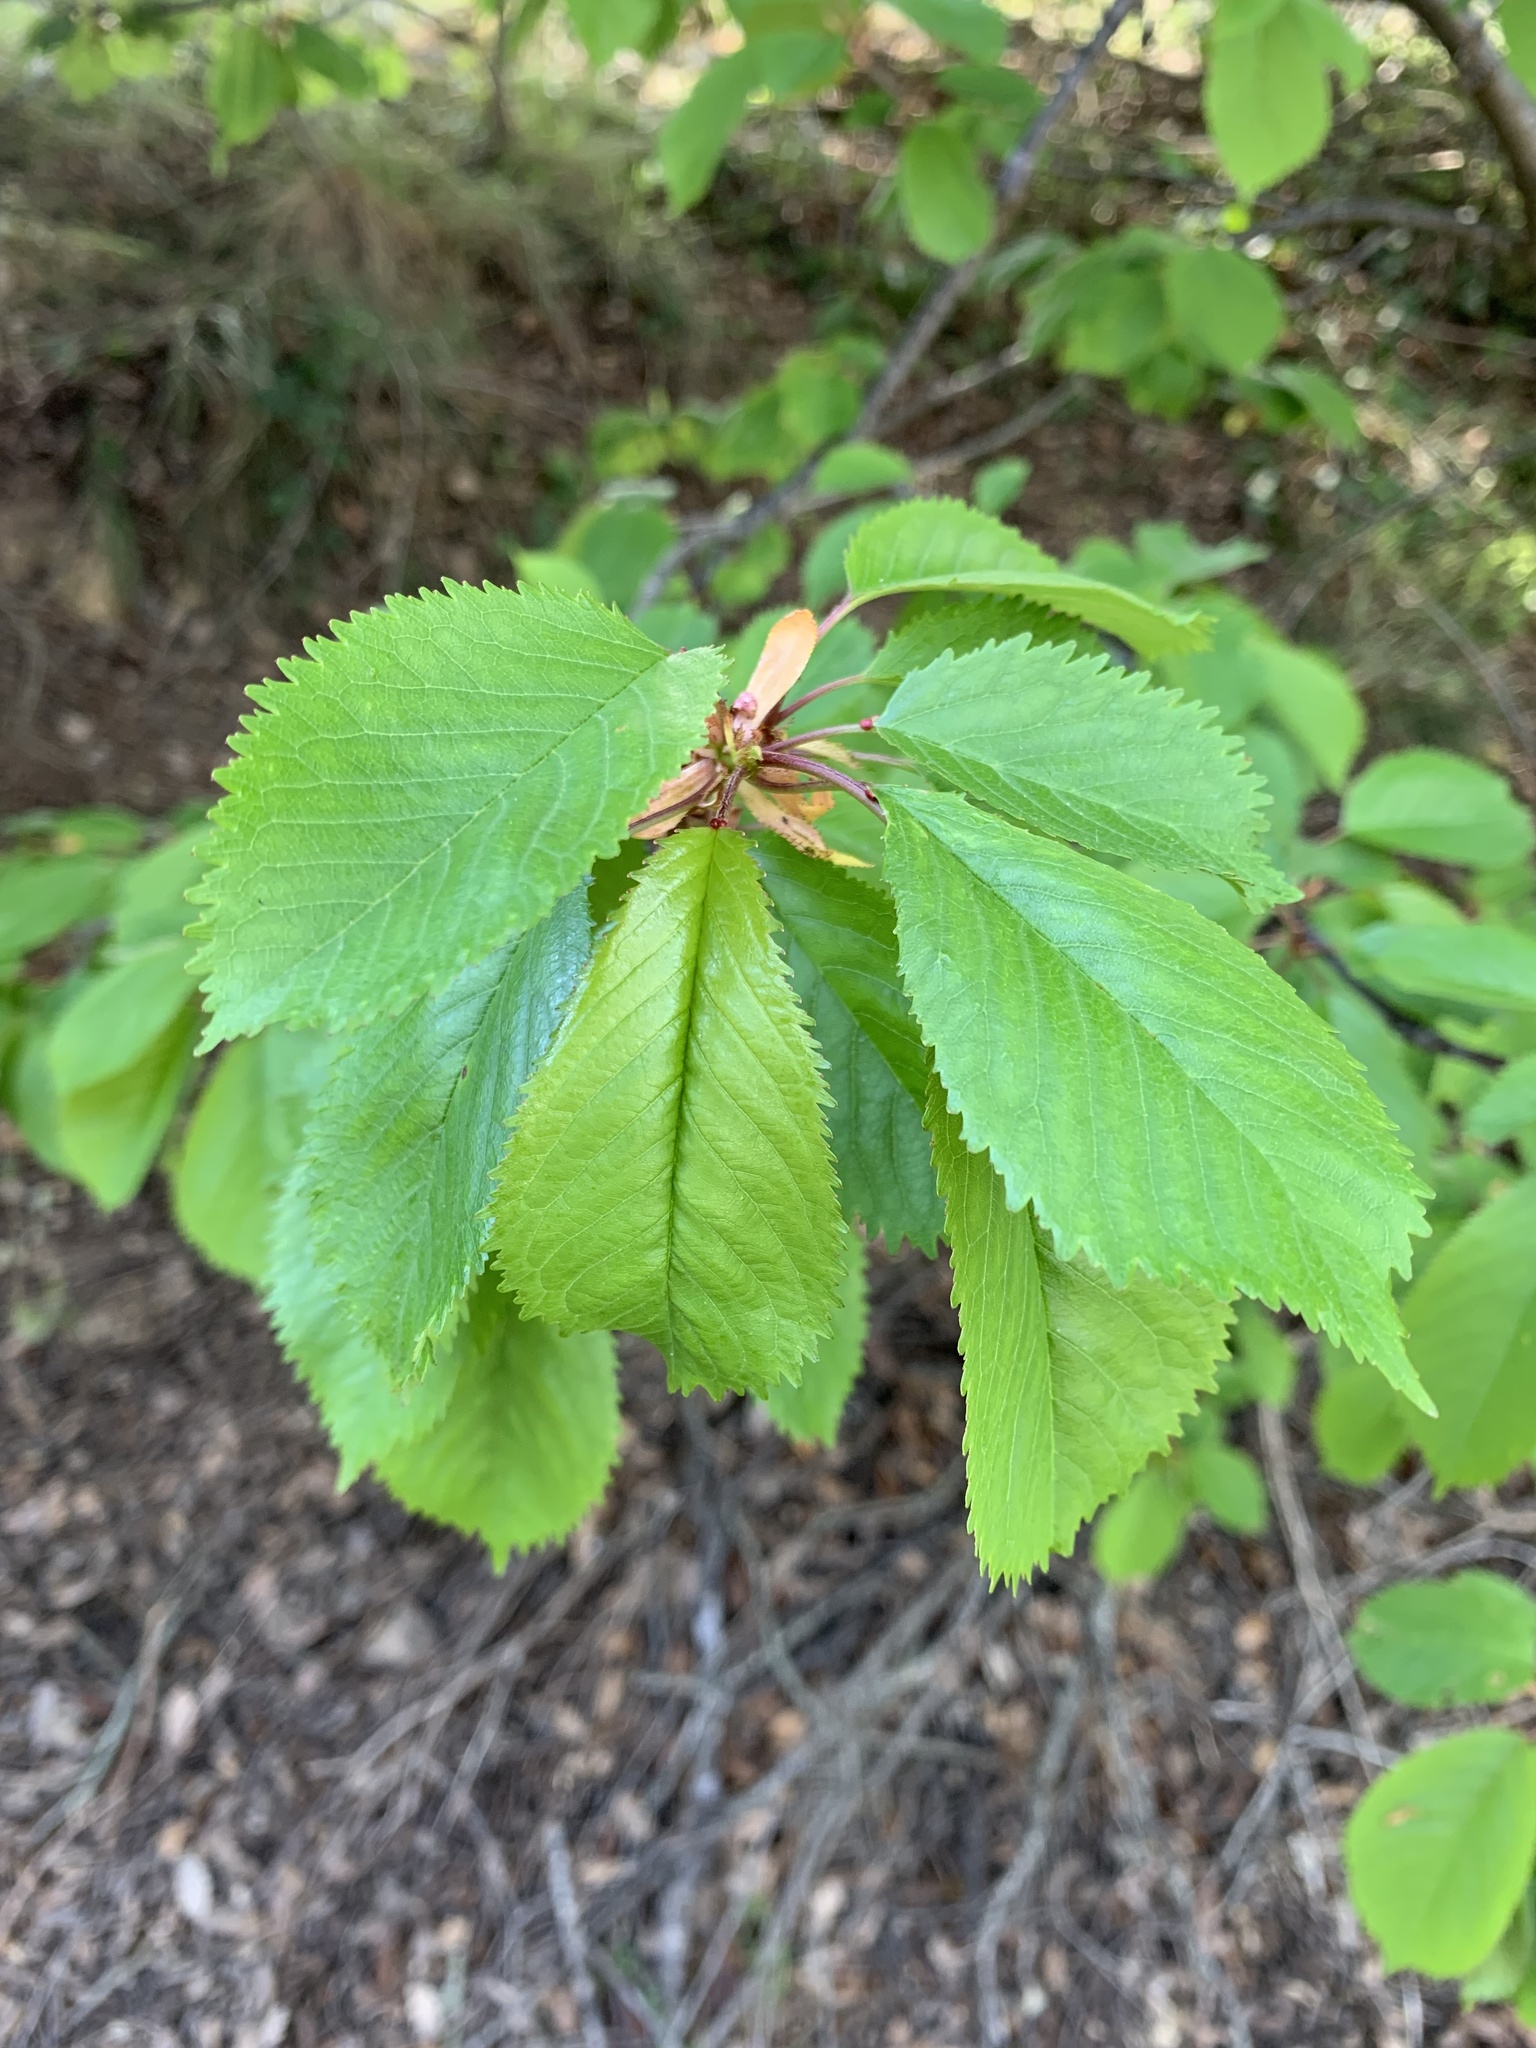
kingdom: Plantae
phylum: Tracheophyta
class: Magnoliopsida
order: Rosales
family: Rosaceae
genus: Prunus
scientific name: Prunus avium
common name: Sweet cherry
